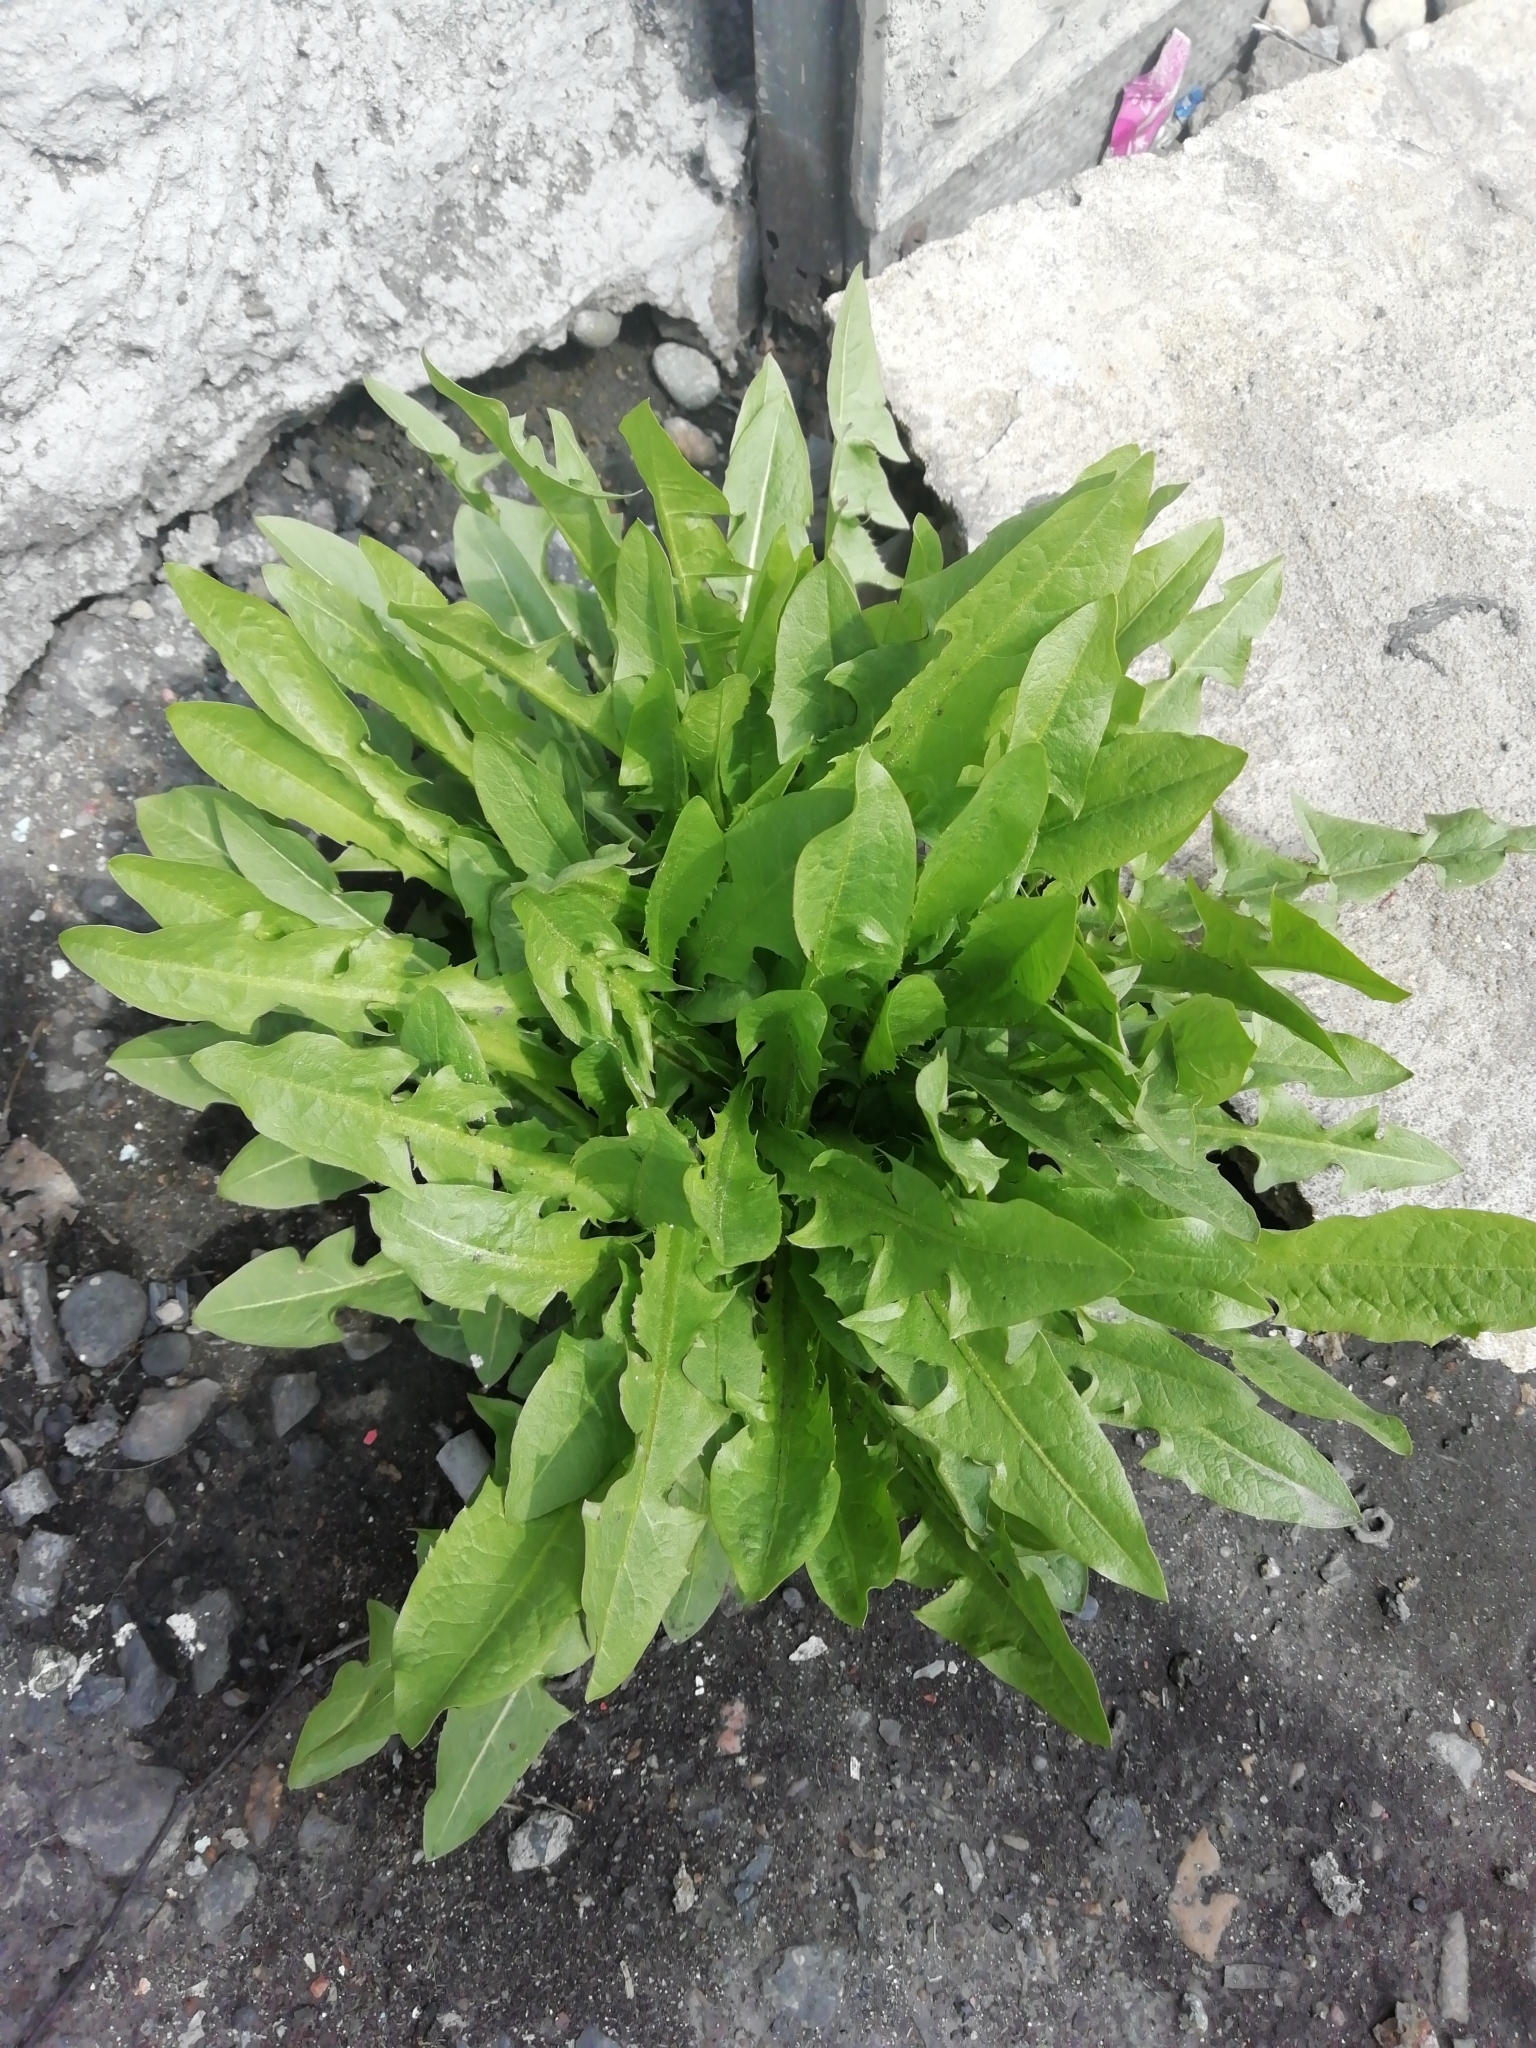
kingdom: Plantae
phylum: Tracheophyta
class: Magnoliopsida
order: Asterales
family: Asteraceae
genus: Taraxacum
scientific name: Taraxacum officinale
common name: Common dandelion
